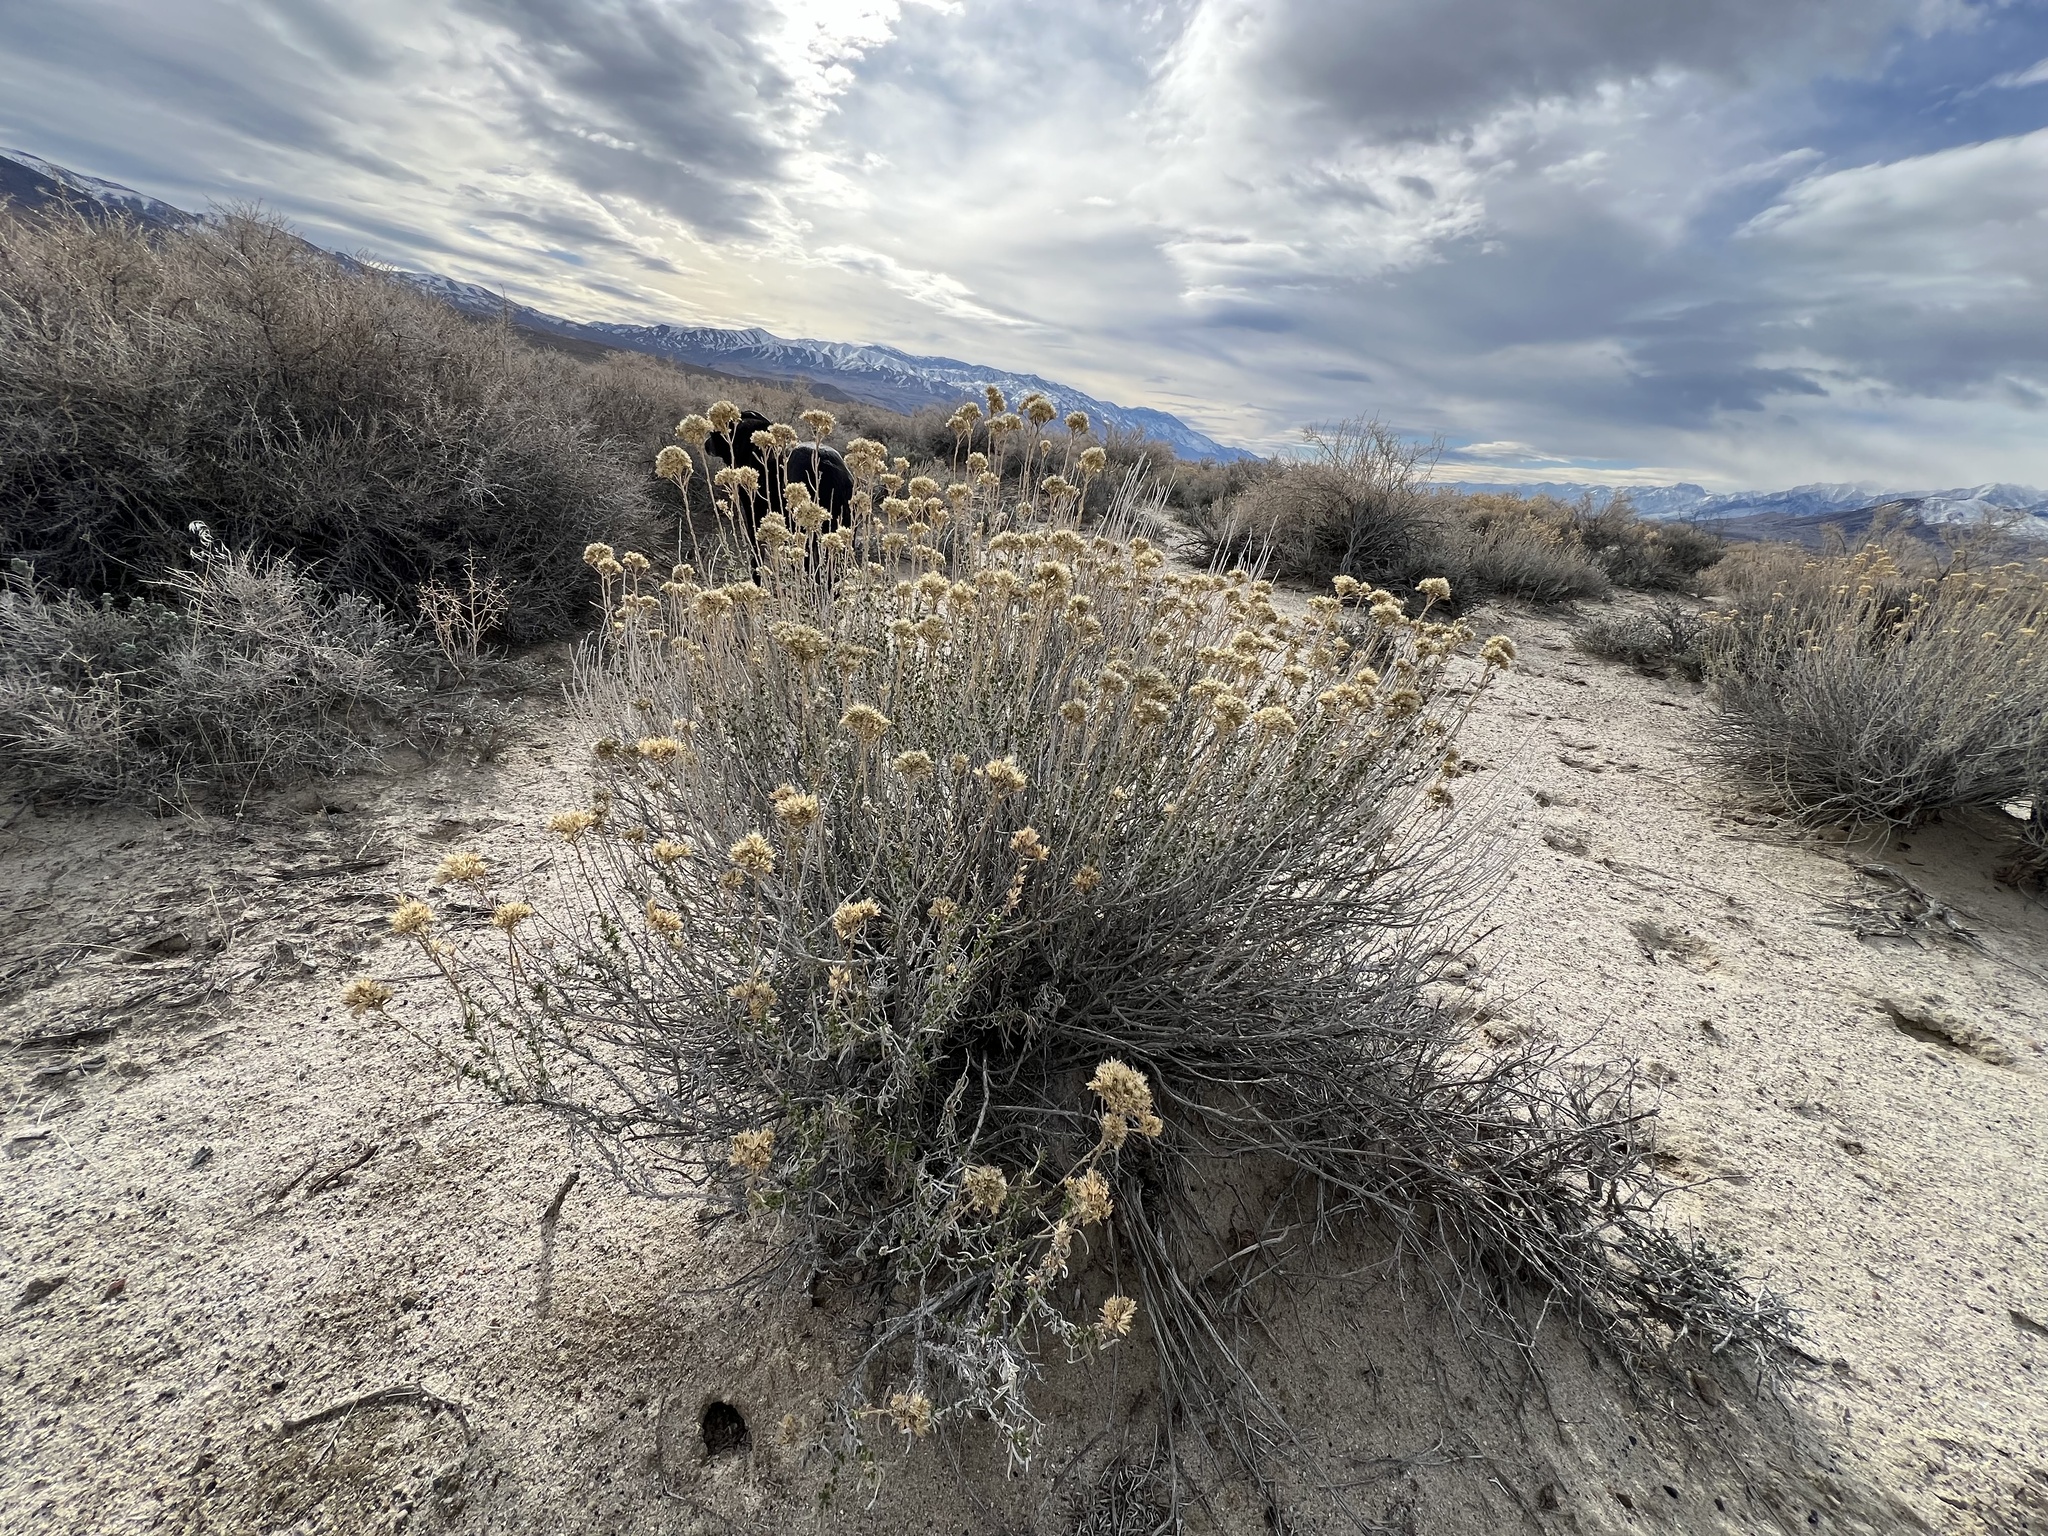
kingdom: Plantae
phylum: Tracheophyta
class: Magnoliopsida
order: Asterales
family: Asteraceae
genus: Chrysothamnus
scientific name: Chrysothamnus viscidiflorus
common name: Yellow rabbitbrush
